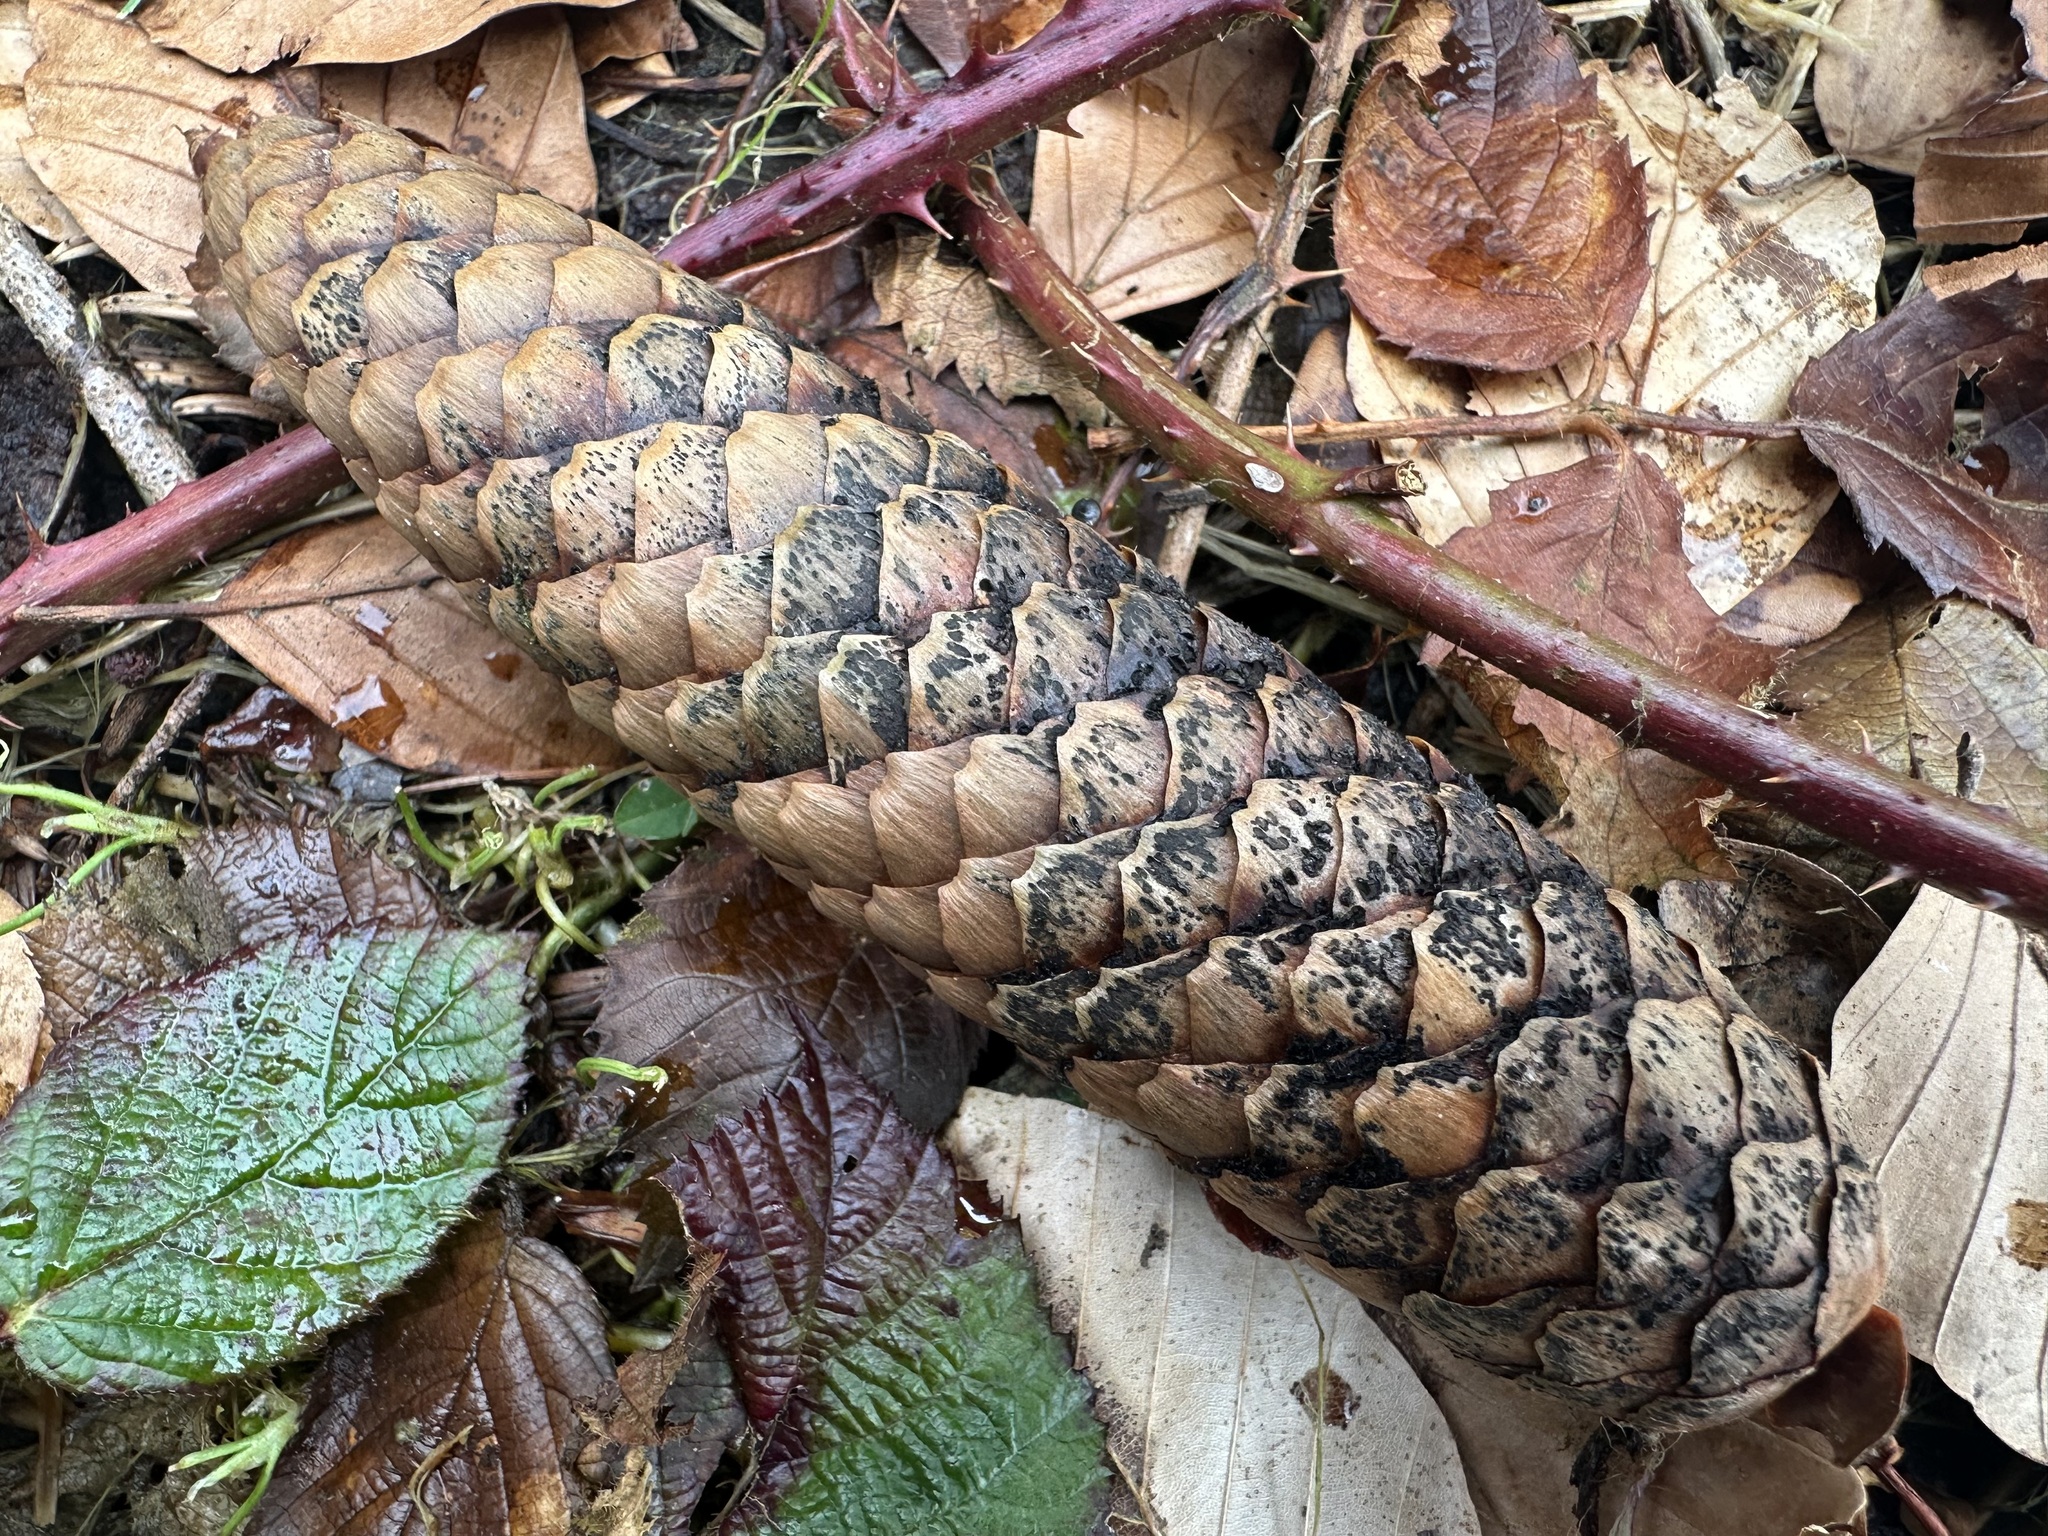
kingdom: Fungi
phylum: Ascomycota
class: Dothideomycetes
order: Pleosporales
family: Melanommataceae
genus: Phragmotrichum
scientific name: Phragmotrichum chailletii
